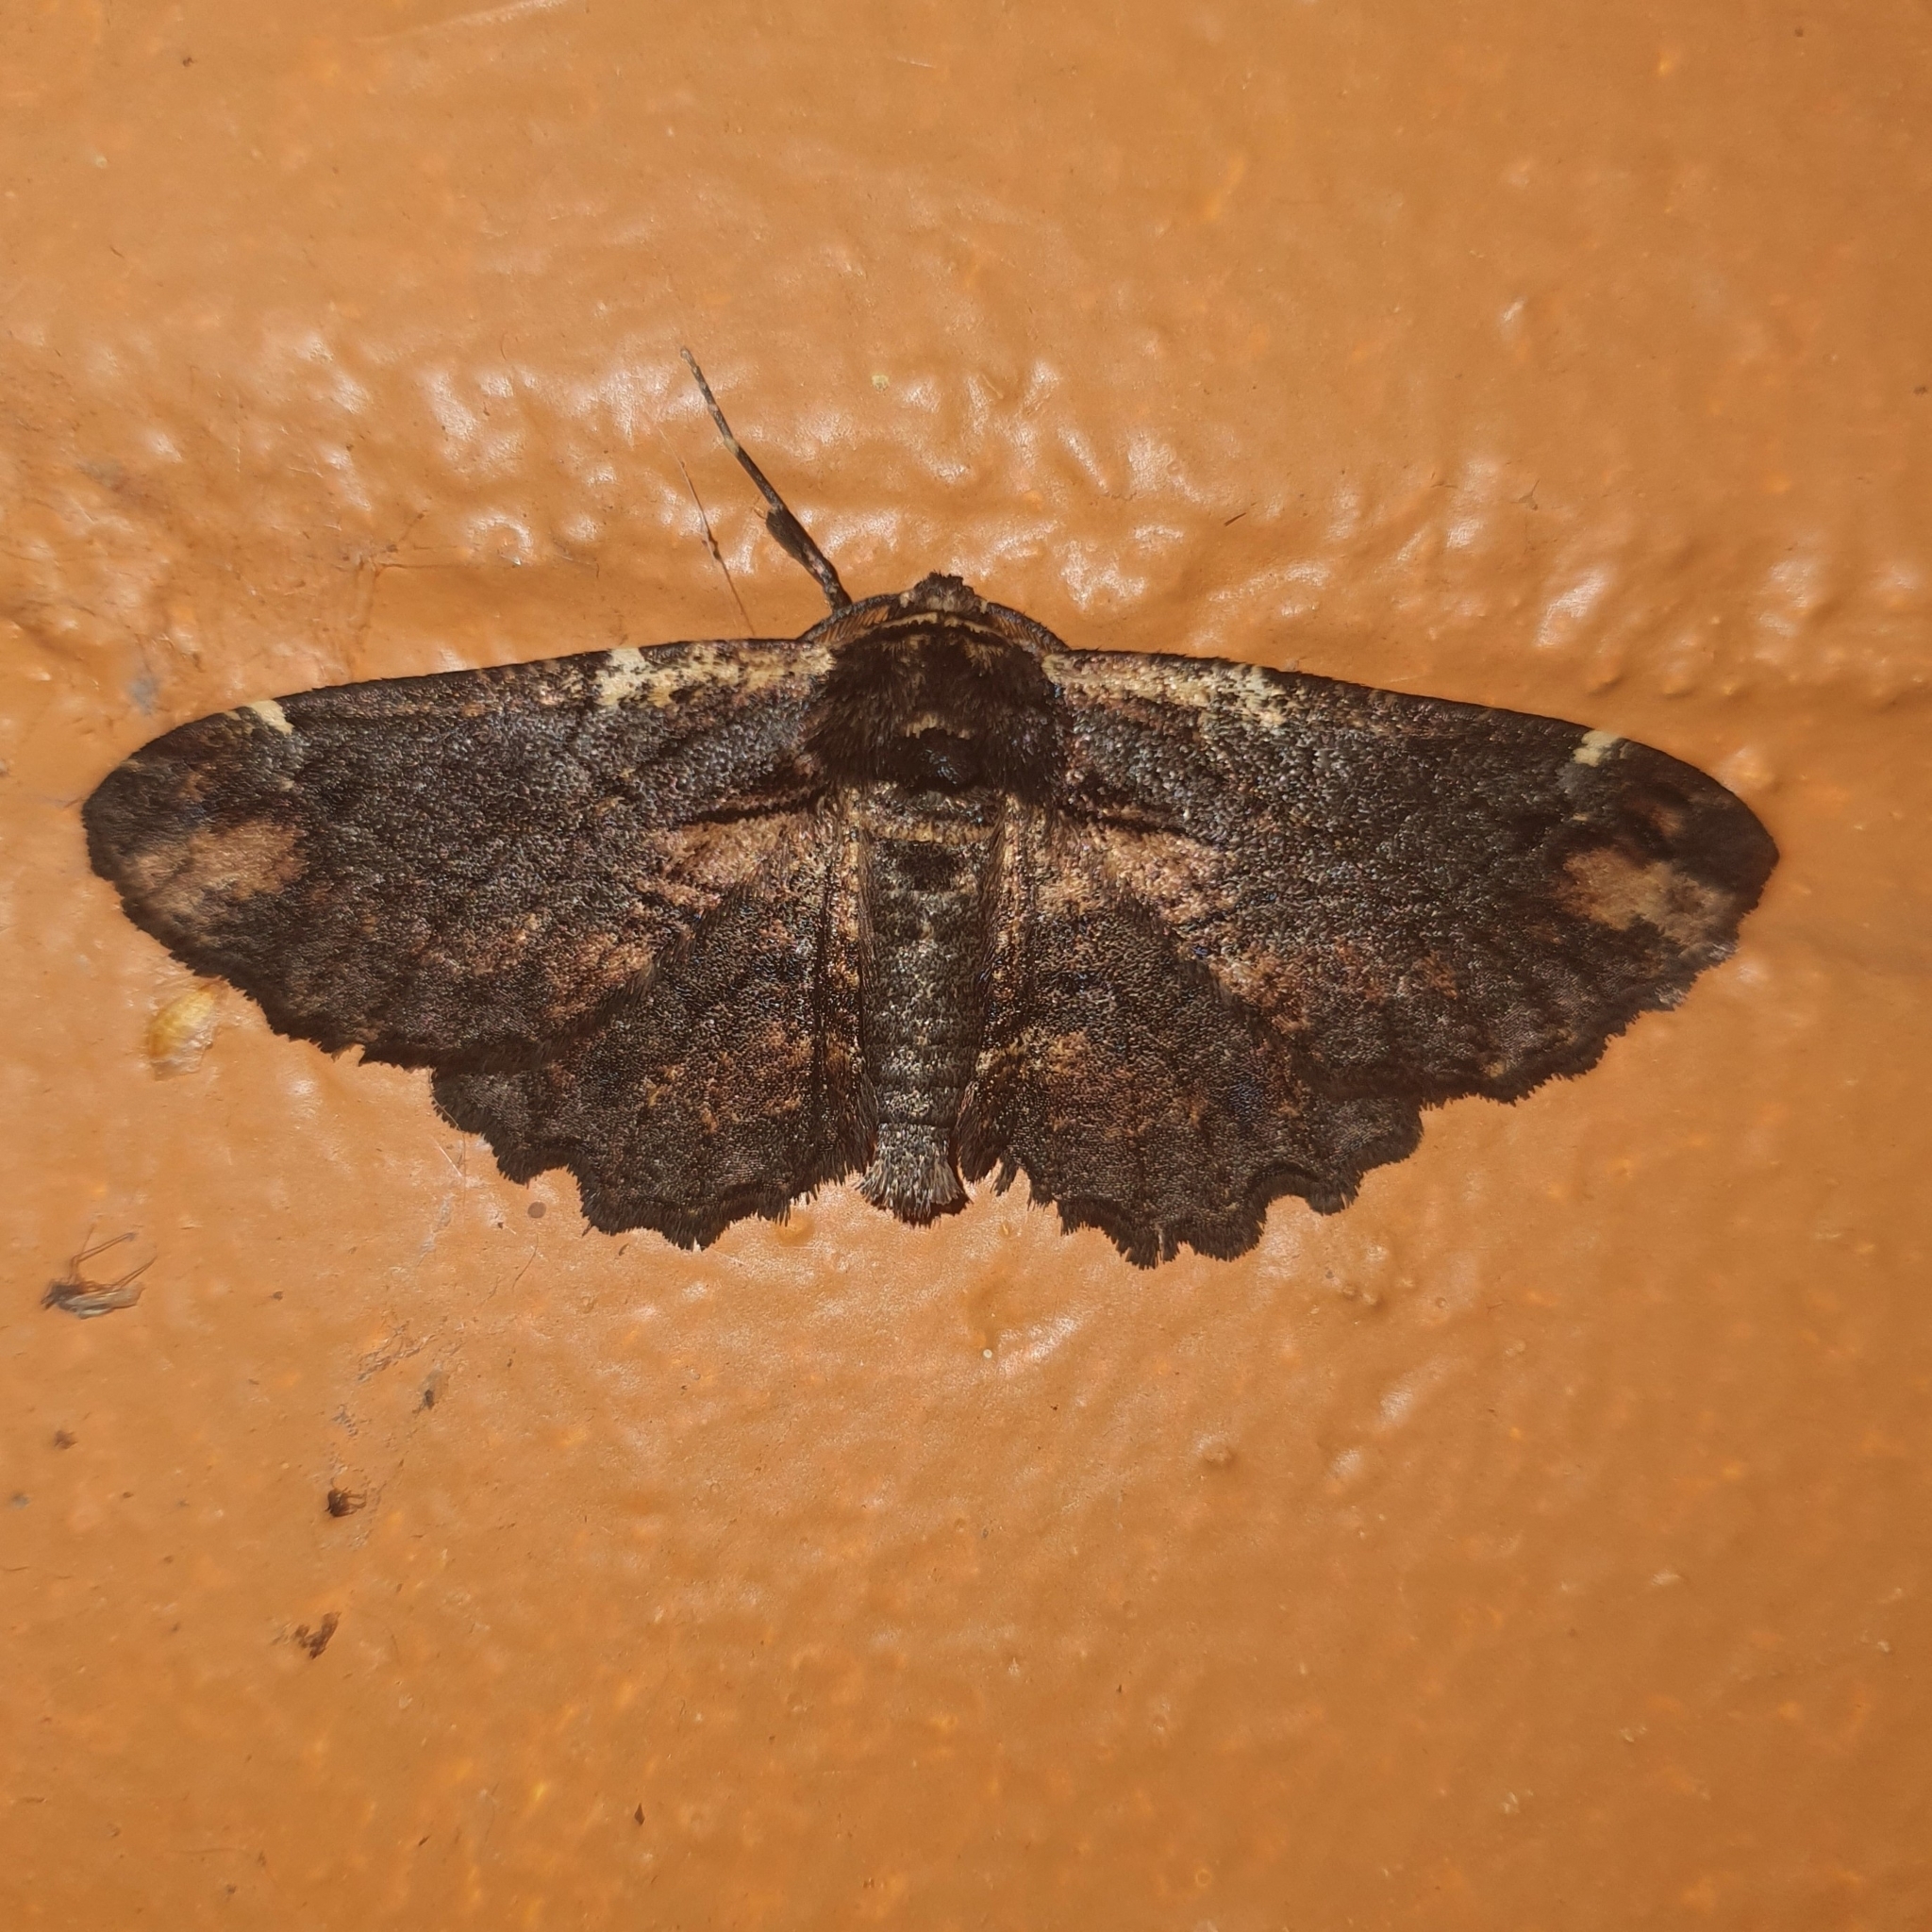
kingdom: Animalia
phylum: Arthropoda
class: Insecta
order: Lepidoptera
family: Geometridae
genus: Pholodes
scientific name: Pholodes sinistraria
